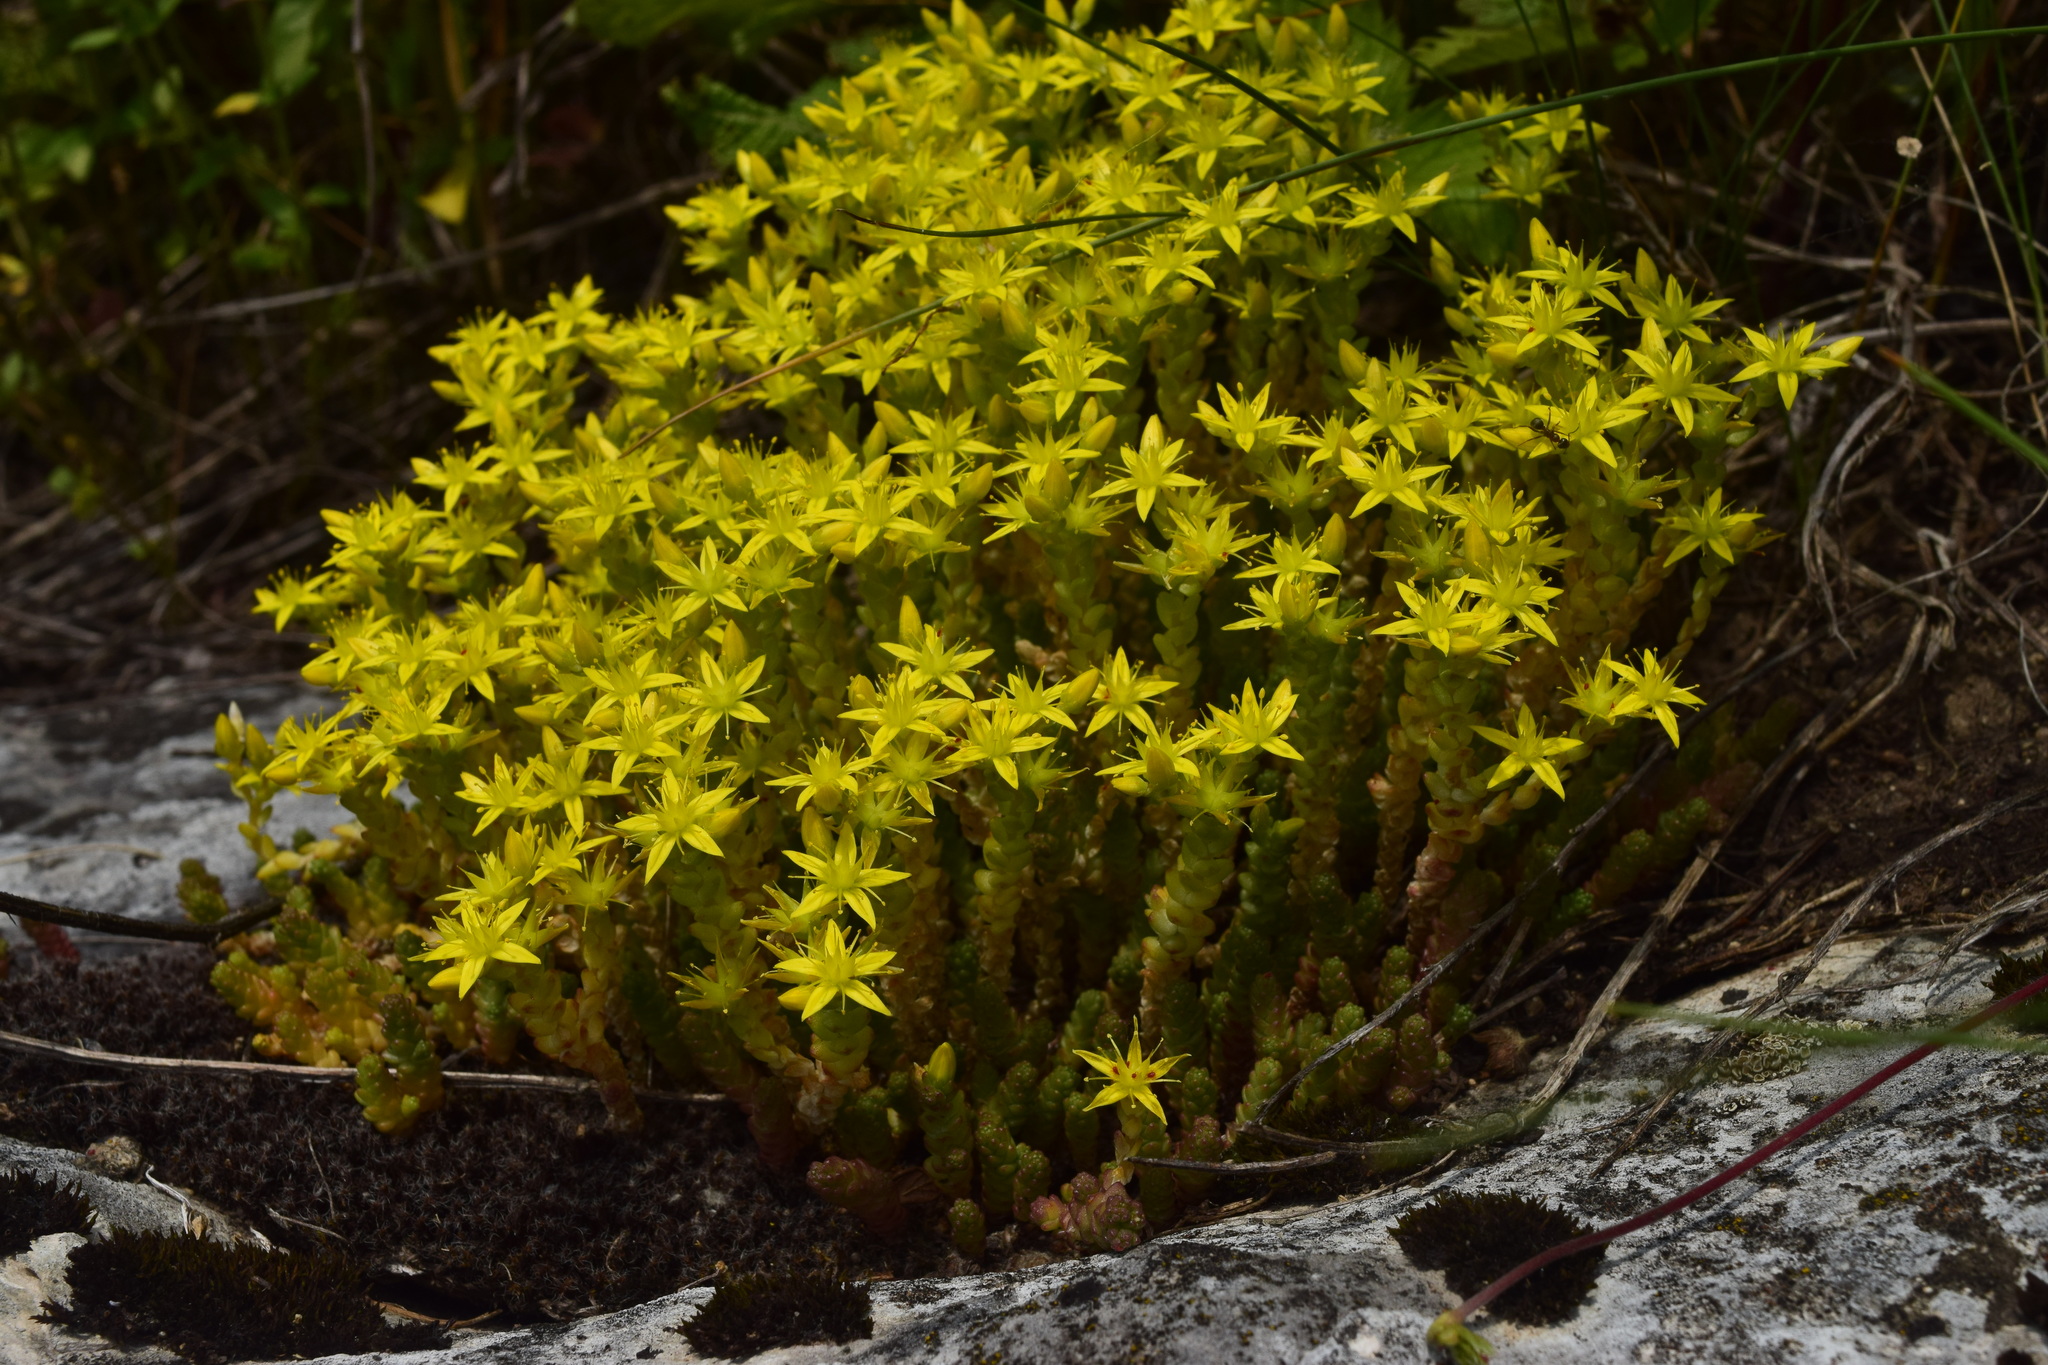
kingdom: Plantae
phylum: Tracheophyta
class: Magnoliopsida
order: Saxifragales
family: Crassulaceae
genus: Sedum
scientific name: Sedum acre
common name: Biting stonecrop
